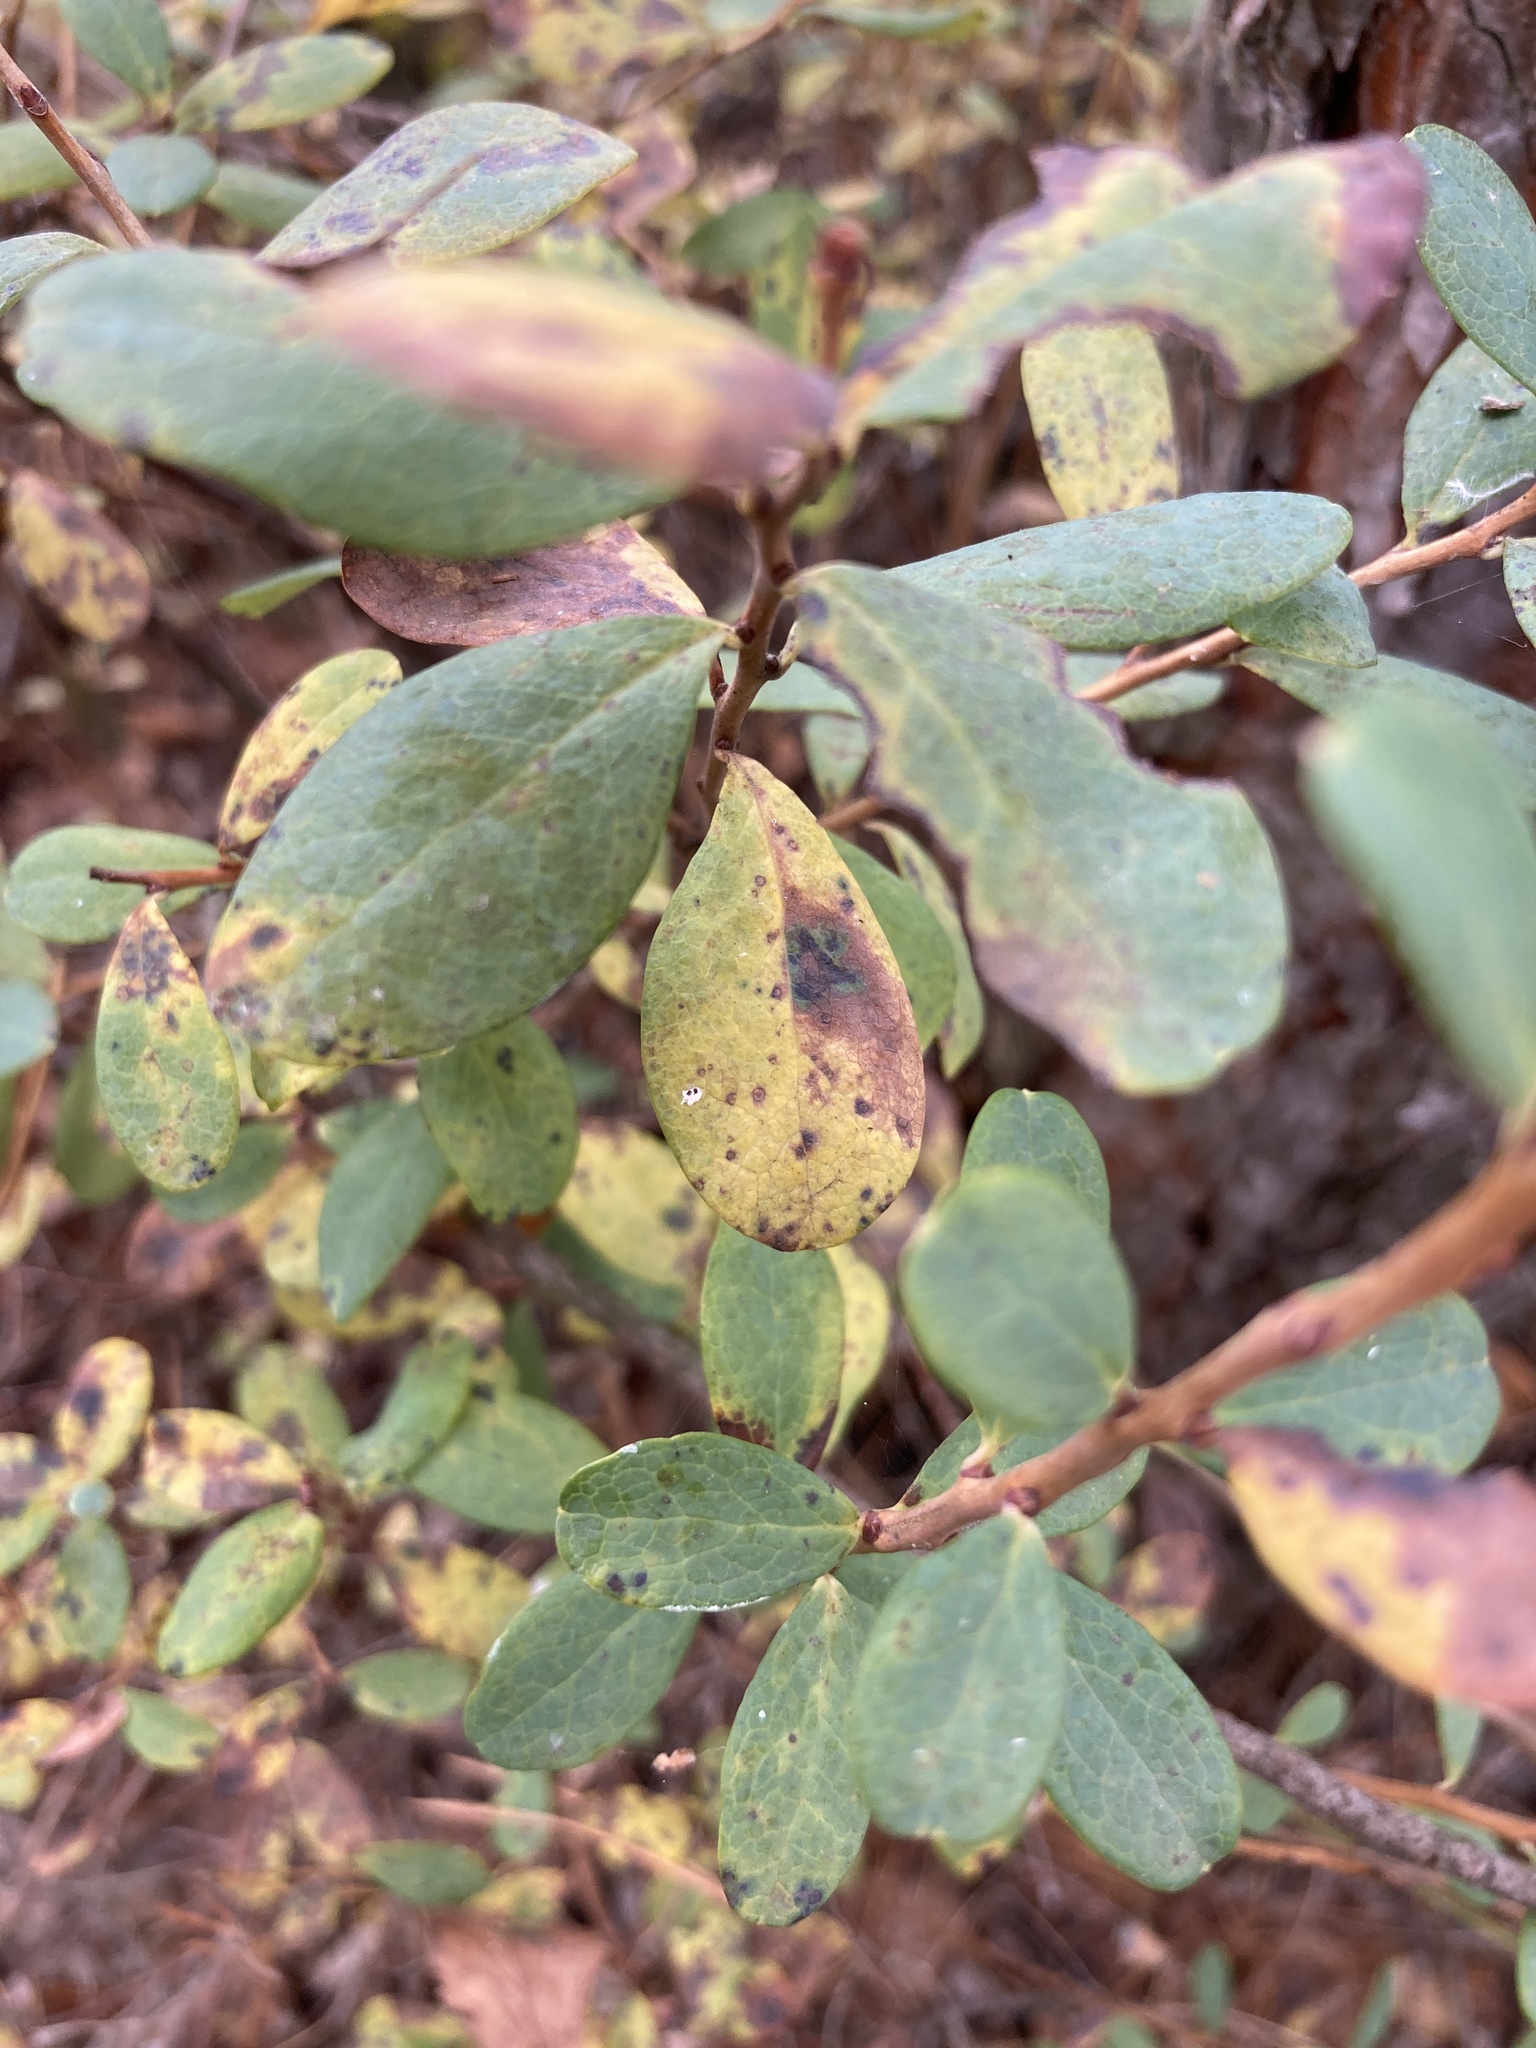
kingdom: Plantae
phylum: Tracheophyta
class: Magnoliopsida
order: Ericales
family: Ericaceae
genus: Vaccinium
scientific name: Vaccinium uliginosum
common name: Bog bilberry
